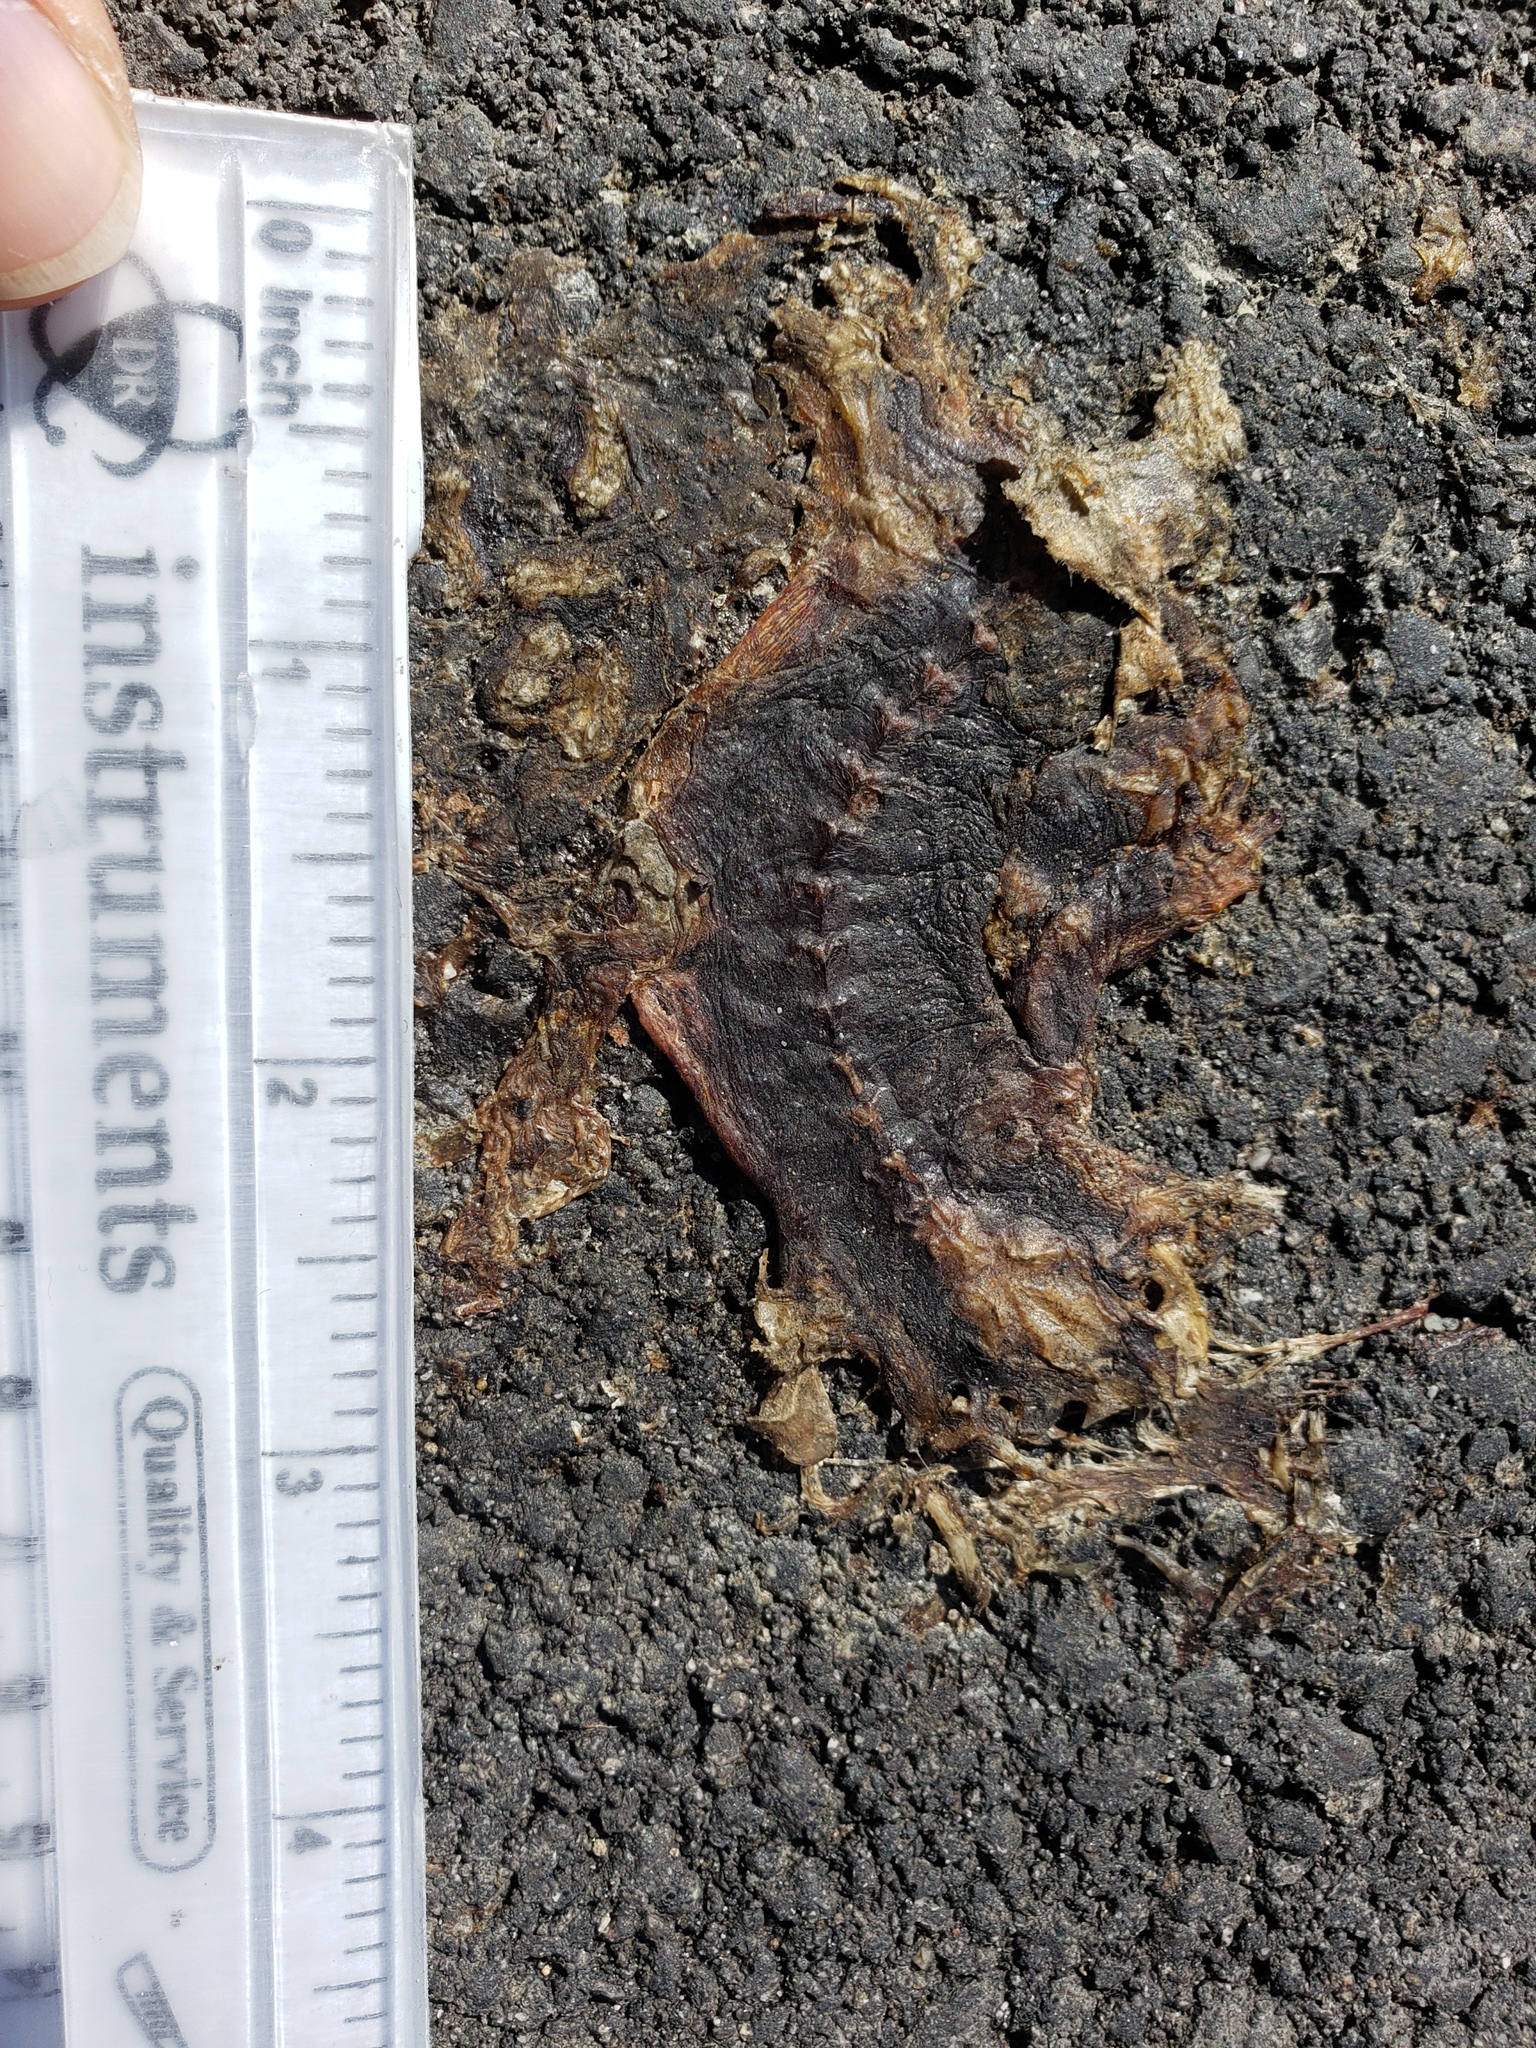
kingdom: Animalia
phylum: Chordata
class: Amphibia
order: Caudata
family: Salamandridae
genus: Taricha
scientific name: Taricha
